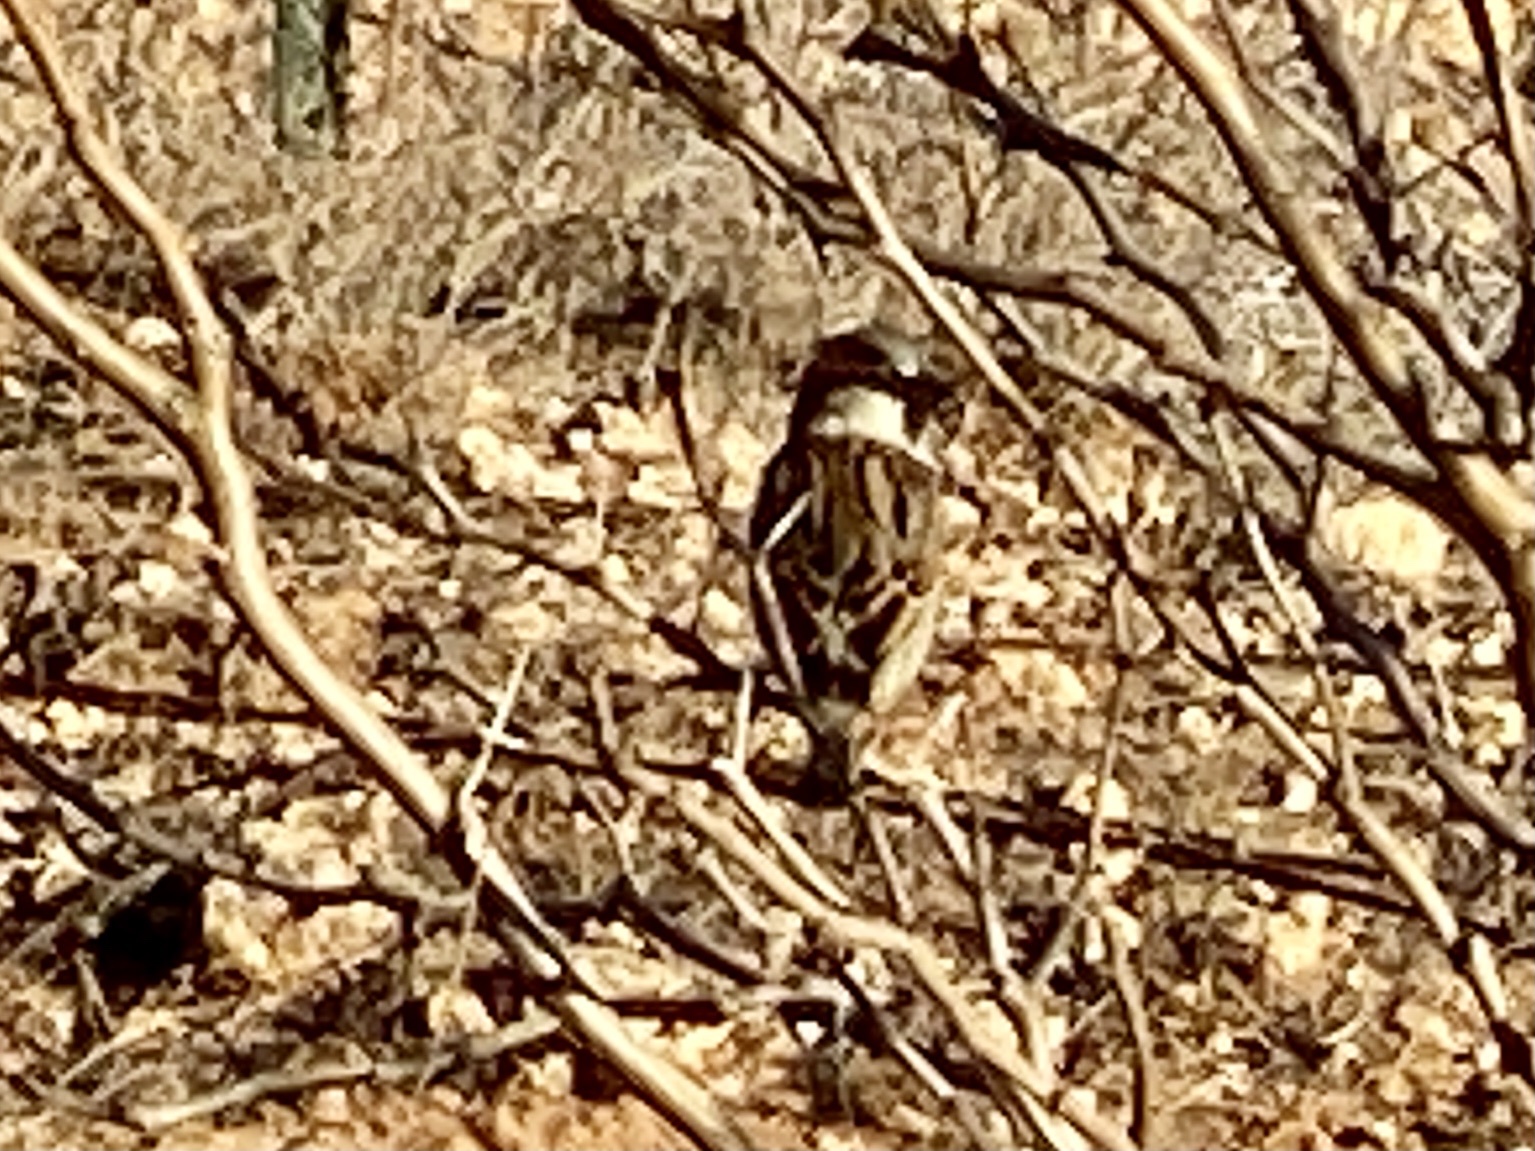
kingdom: Animalia
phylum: Chordata
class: Aves
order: Passeriformes
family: Passeridae
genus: Passer
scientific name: Passer domesticus
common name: House sparrow
